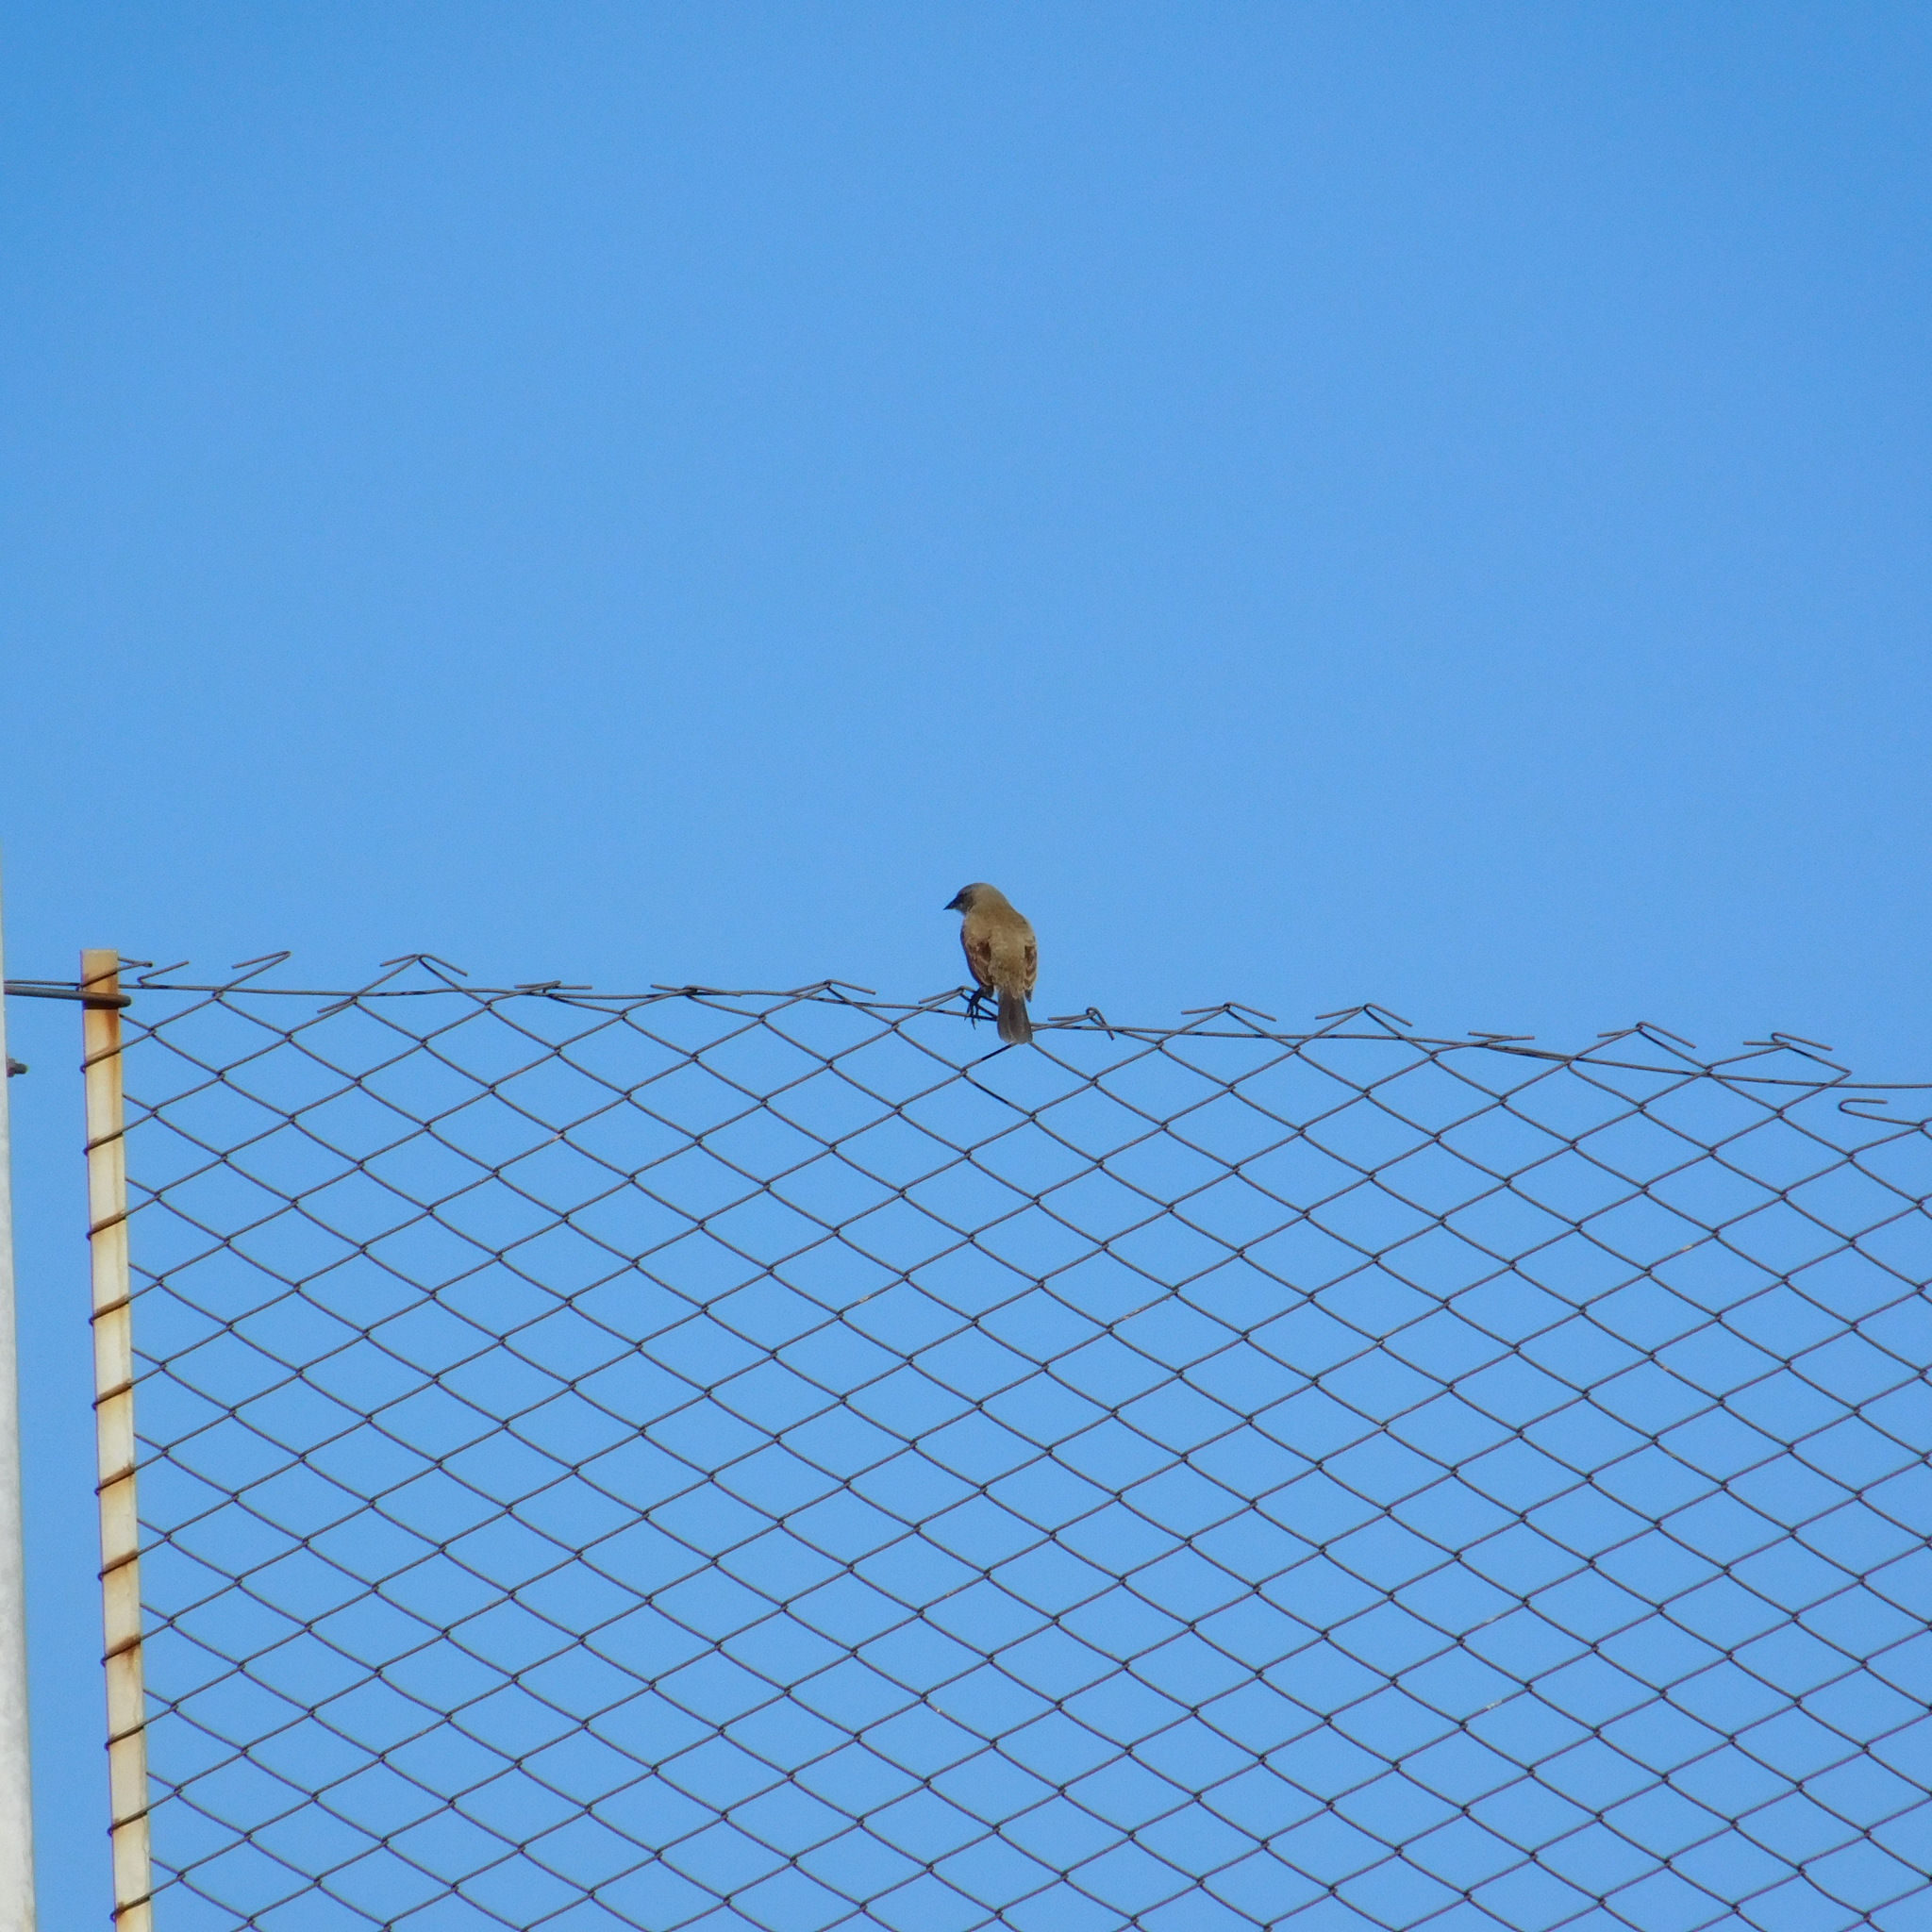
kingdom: Animalia
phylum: Chordata
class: Aves
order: Passeriformes
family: Icteridae
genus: Agelaioides
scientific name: Agelaioides badius
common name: Baywing
